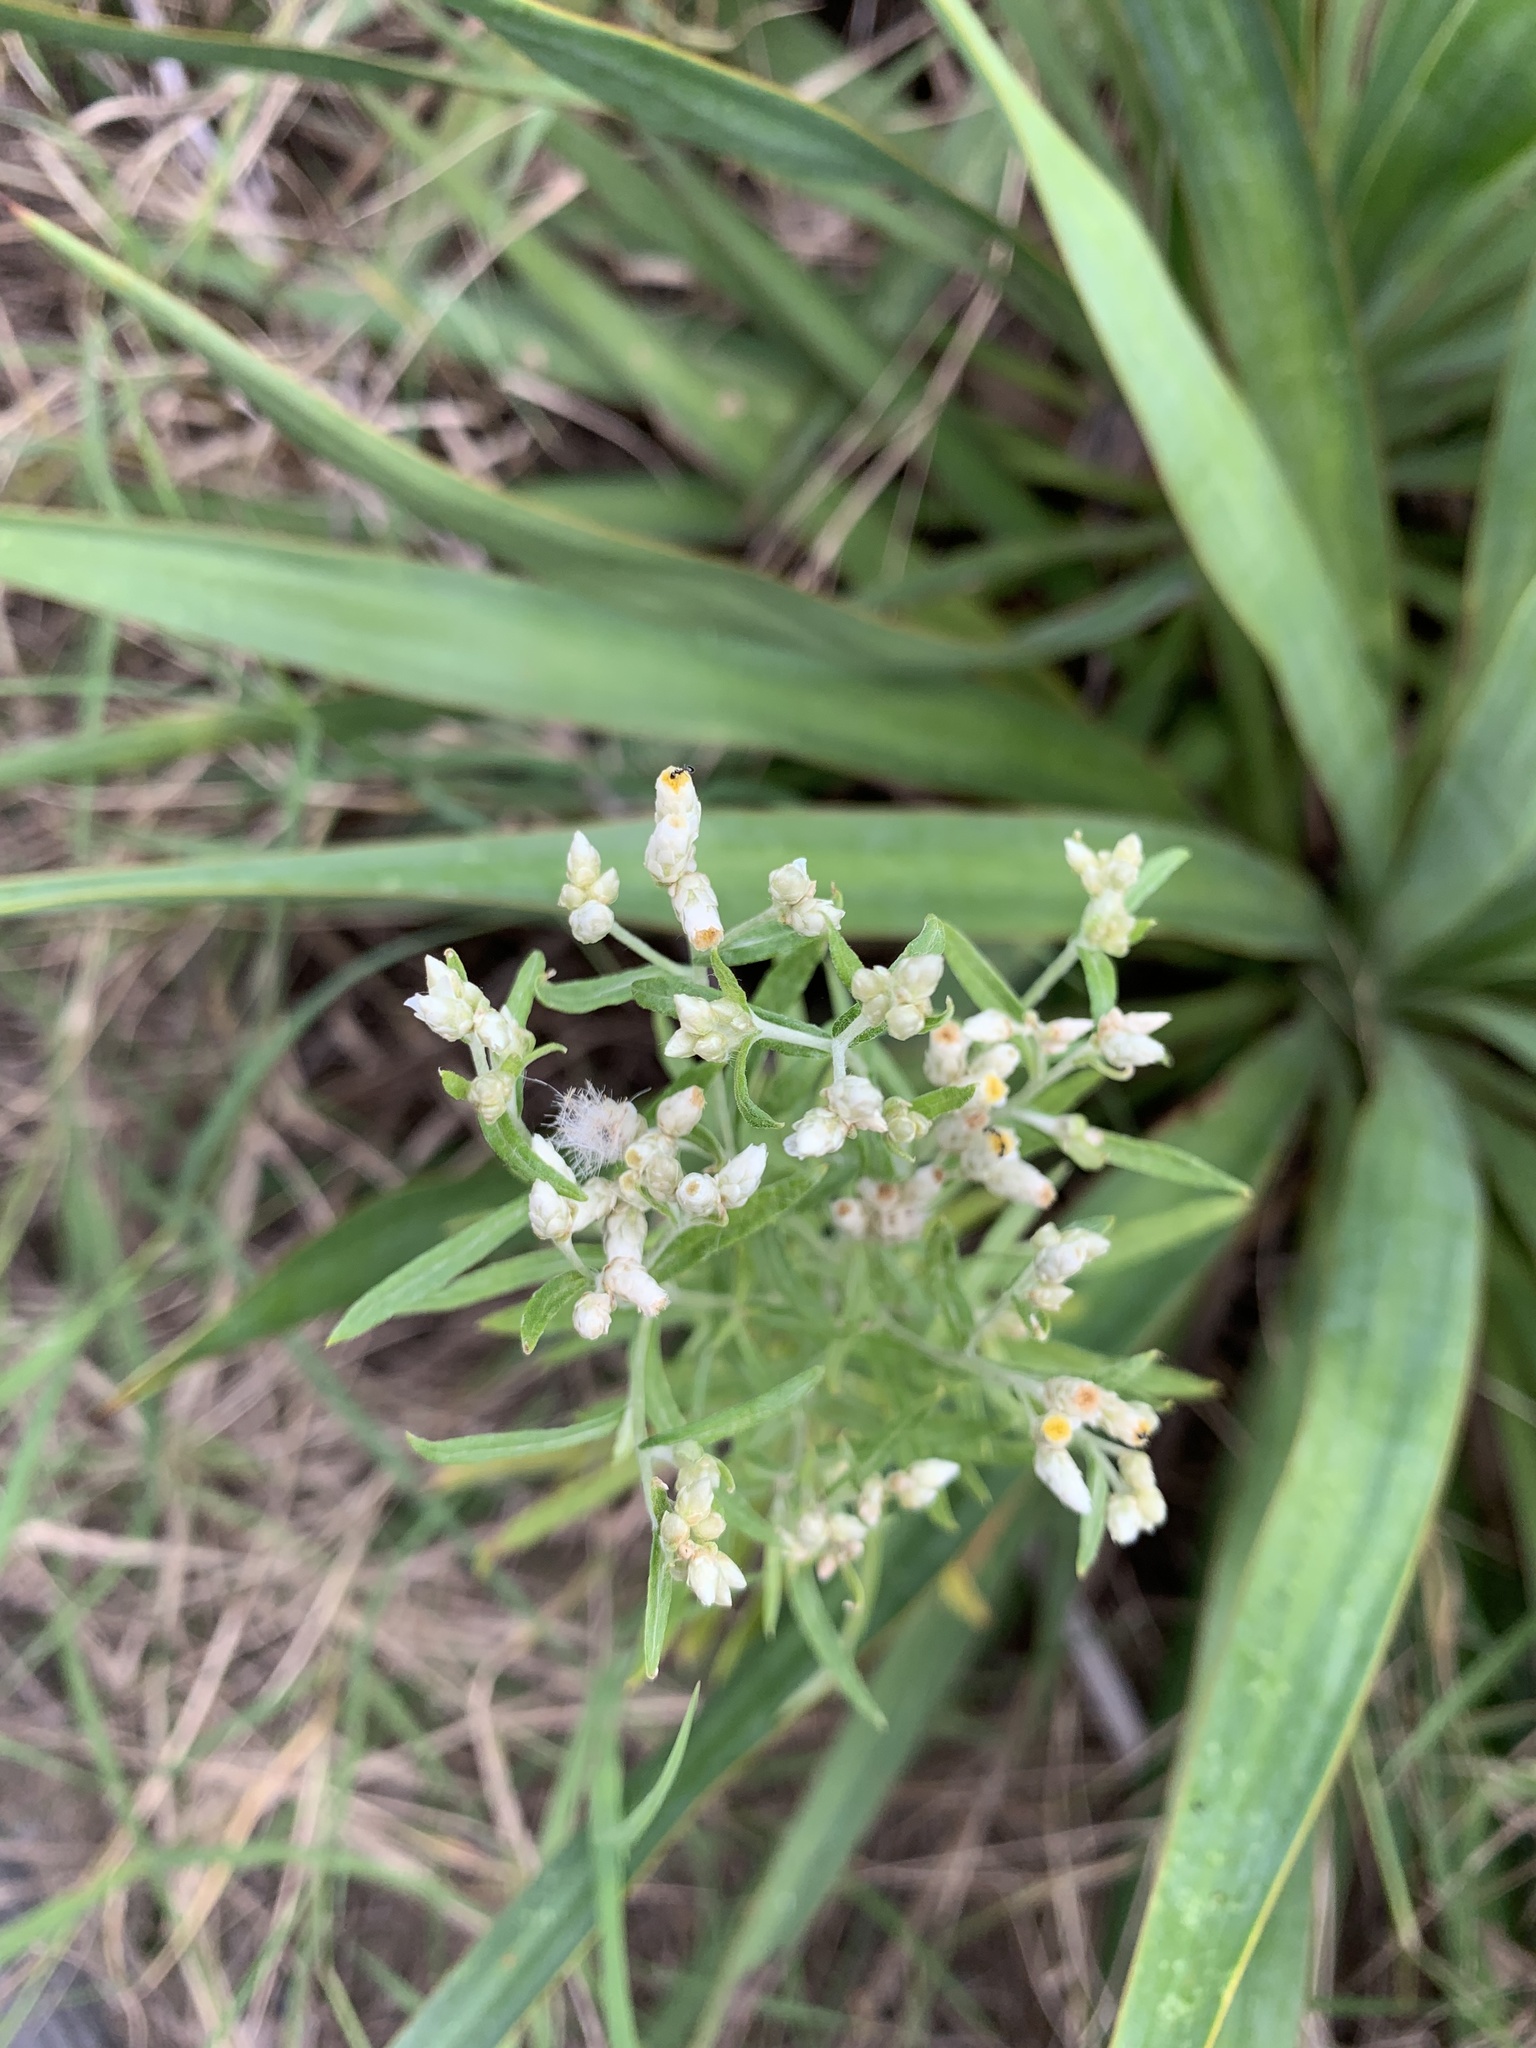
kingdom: Plantae
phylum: Tracheophyta
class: Magnoliopsida
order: Asterales
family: Asteraceae
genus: Pseudognaphalium
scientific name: Pseudognaphalium obtusifolium
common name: Eastern rabbit-tobacco
